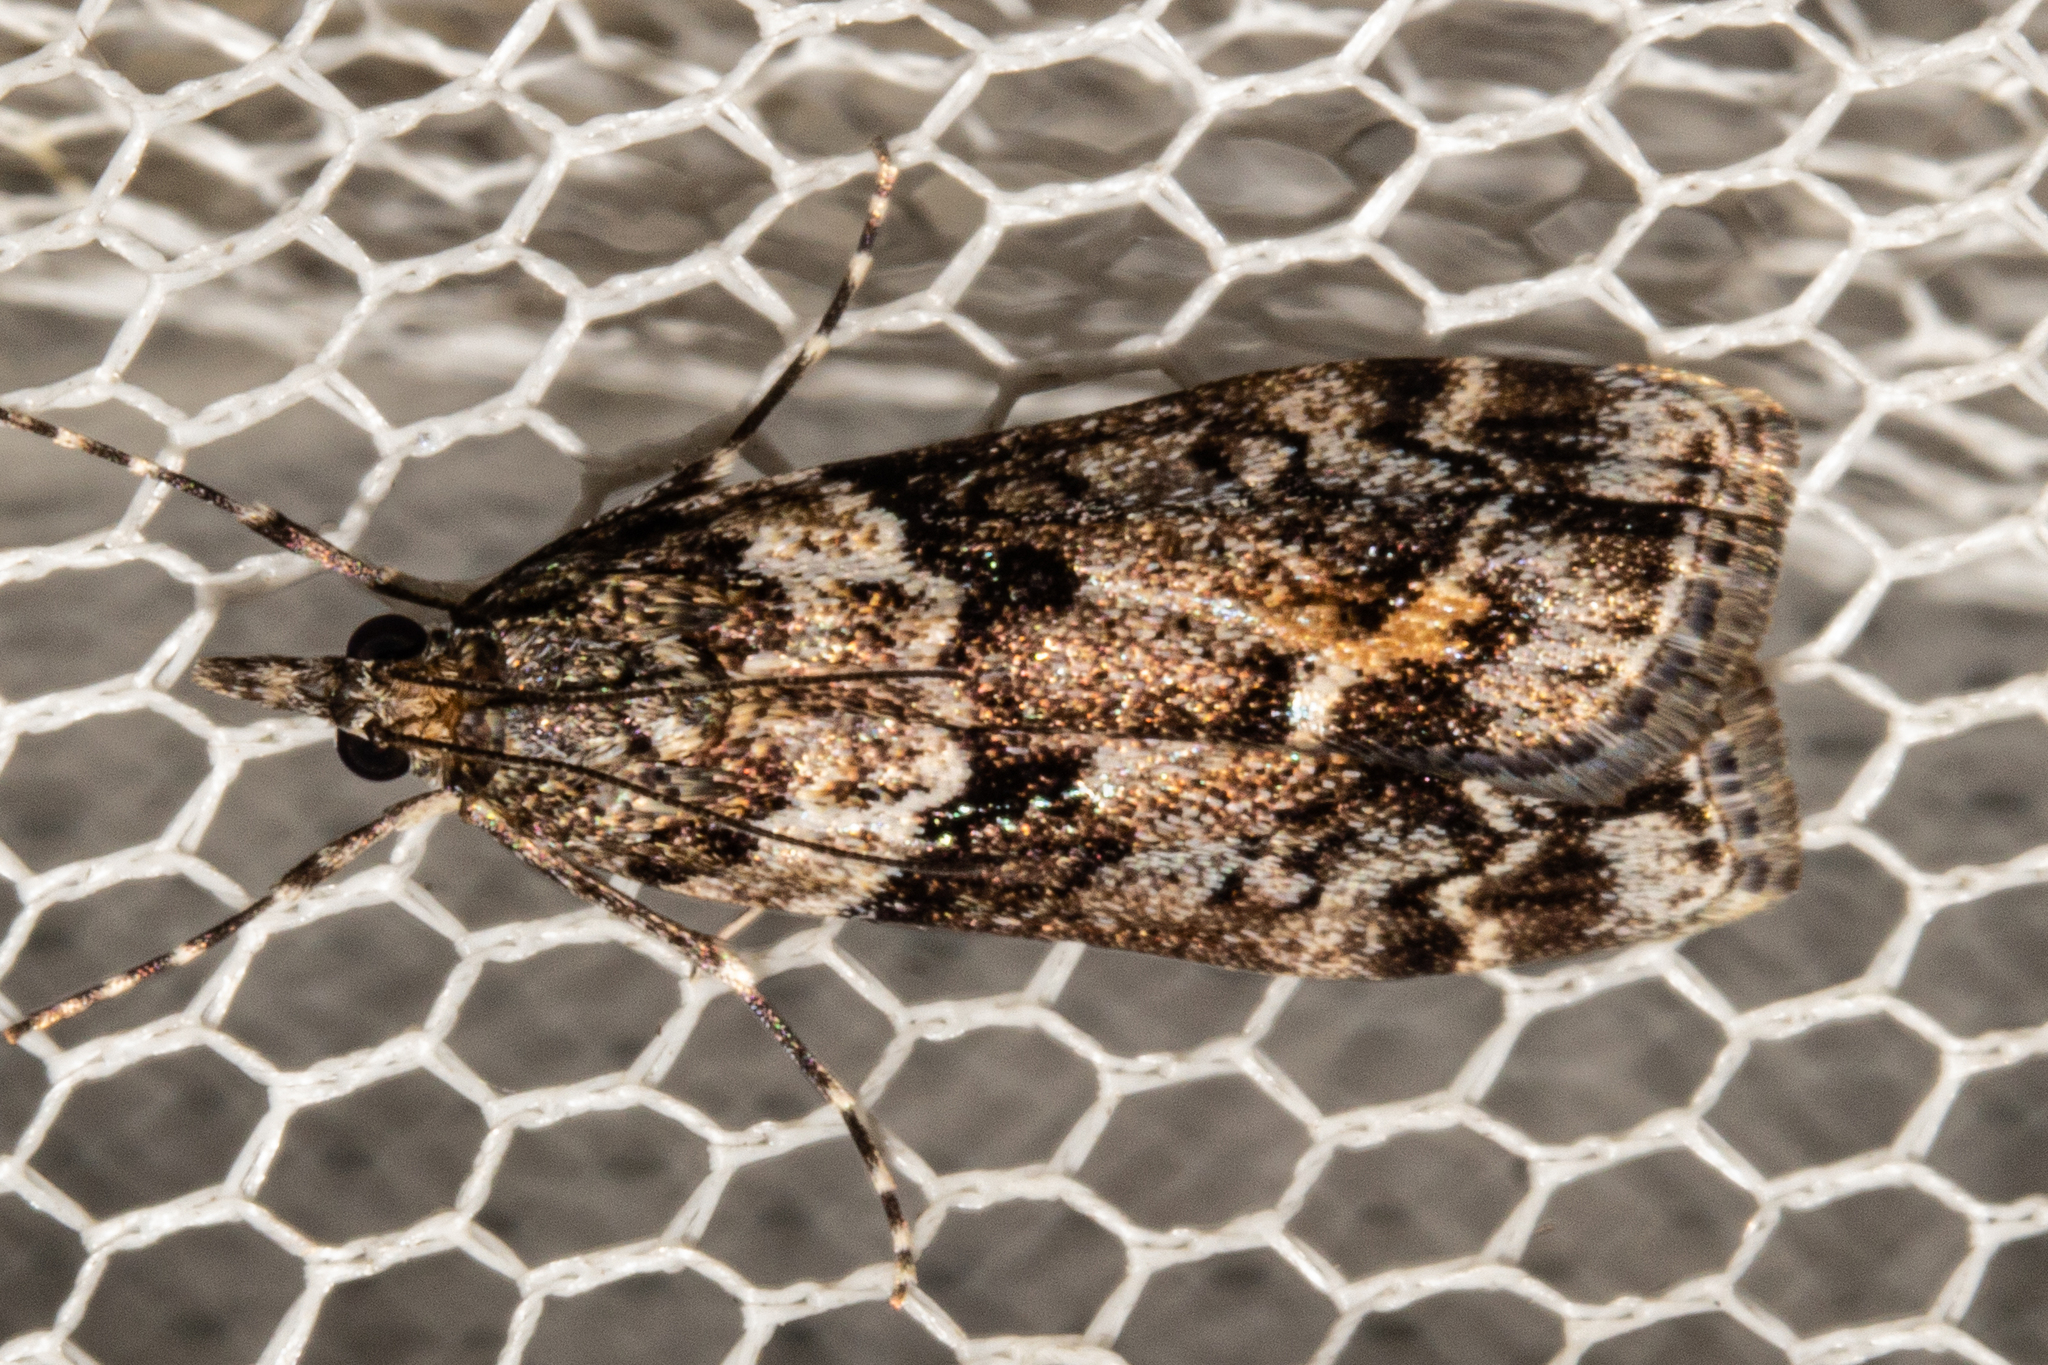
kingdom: Animalia
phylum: Arthropoda
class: Insecta
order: Lepidoptera
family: Crambidae
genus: Eudonia
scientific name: Eudonia submarginalis
